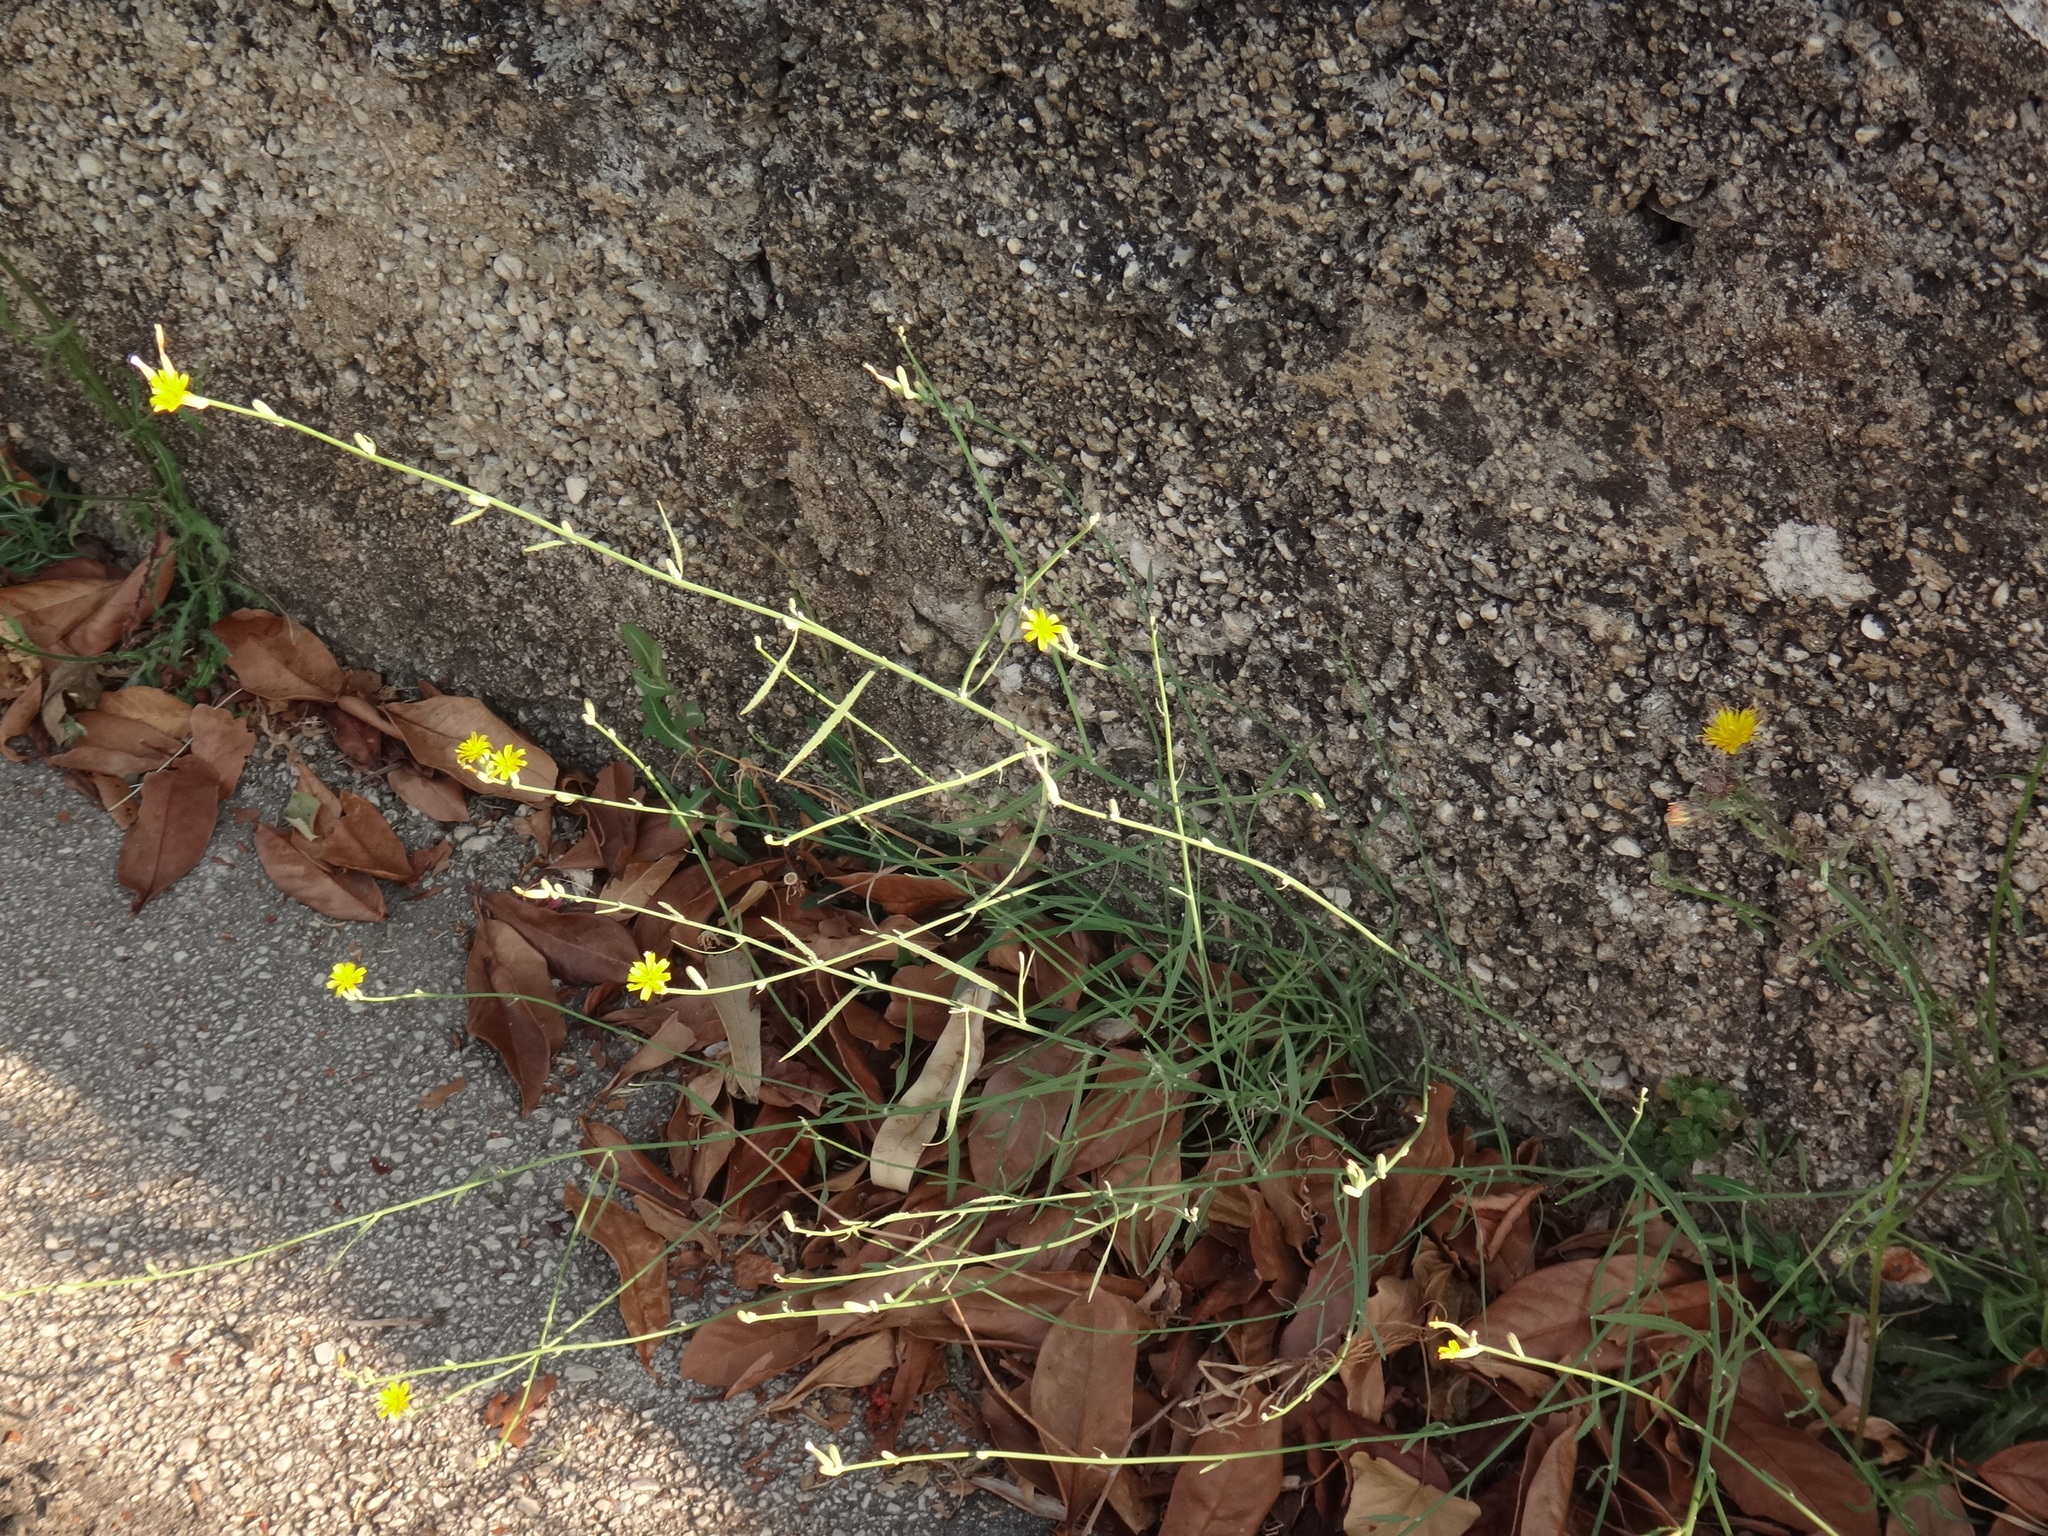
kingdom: Plantae
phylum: Tracheophyta
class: Magnoliopsida
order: Asterales
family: Asteraceae
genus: Chondrilla
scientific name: Chondrilla juncea
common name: Skeleton weed
